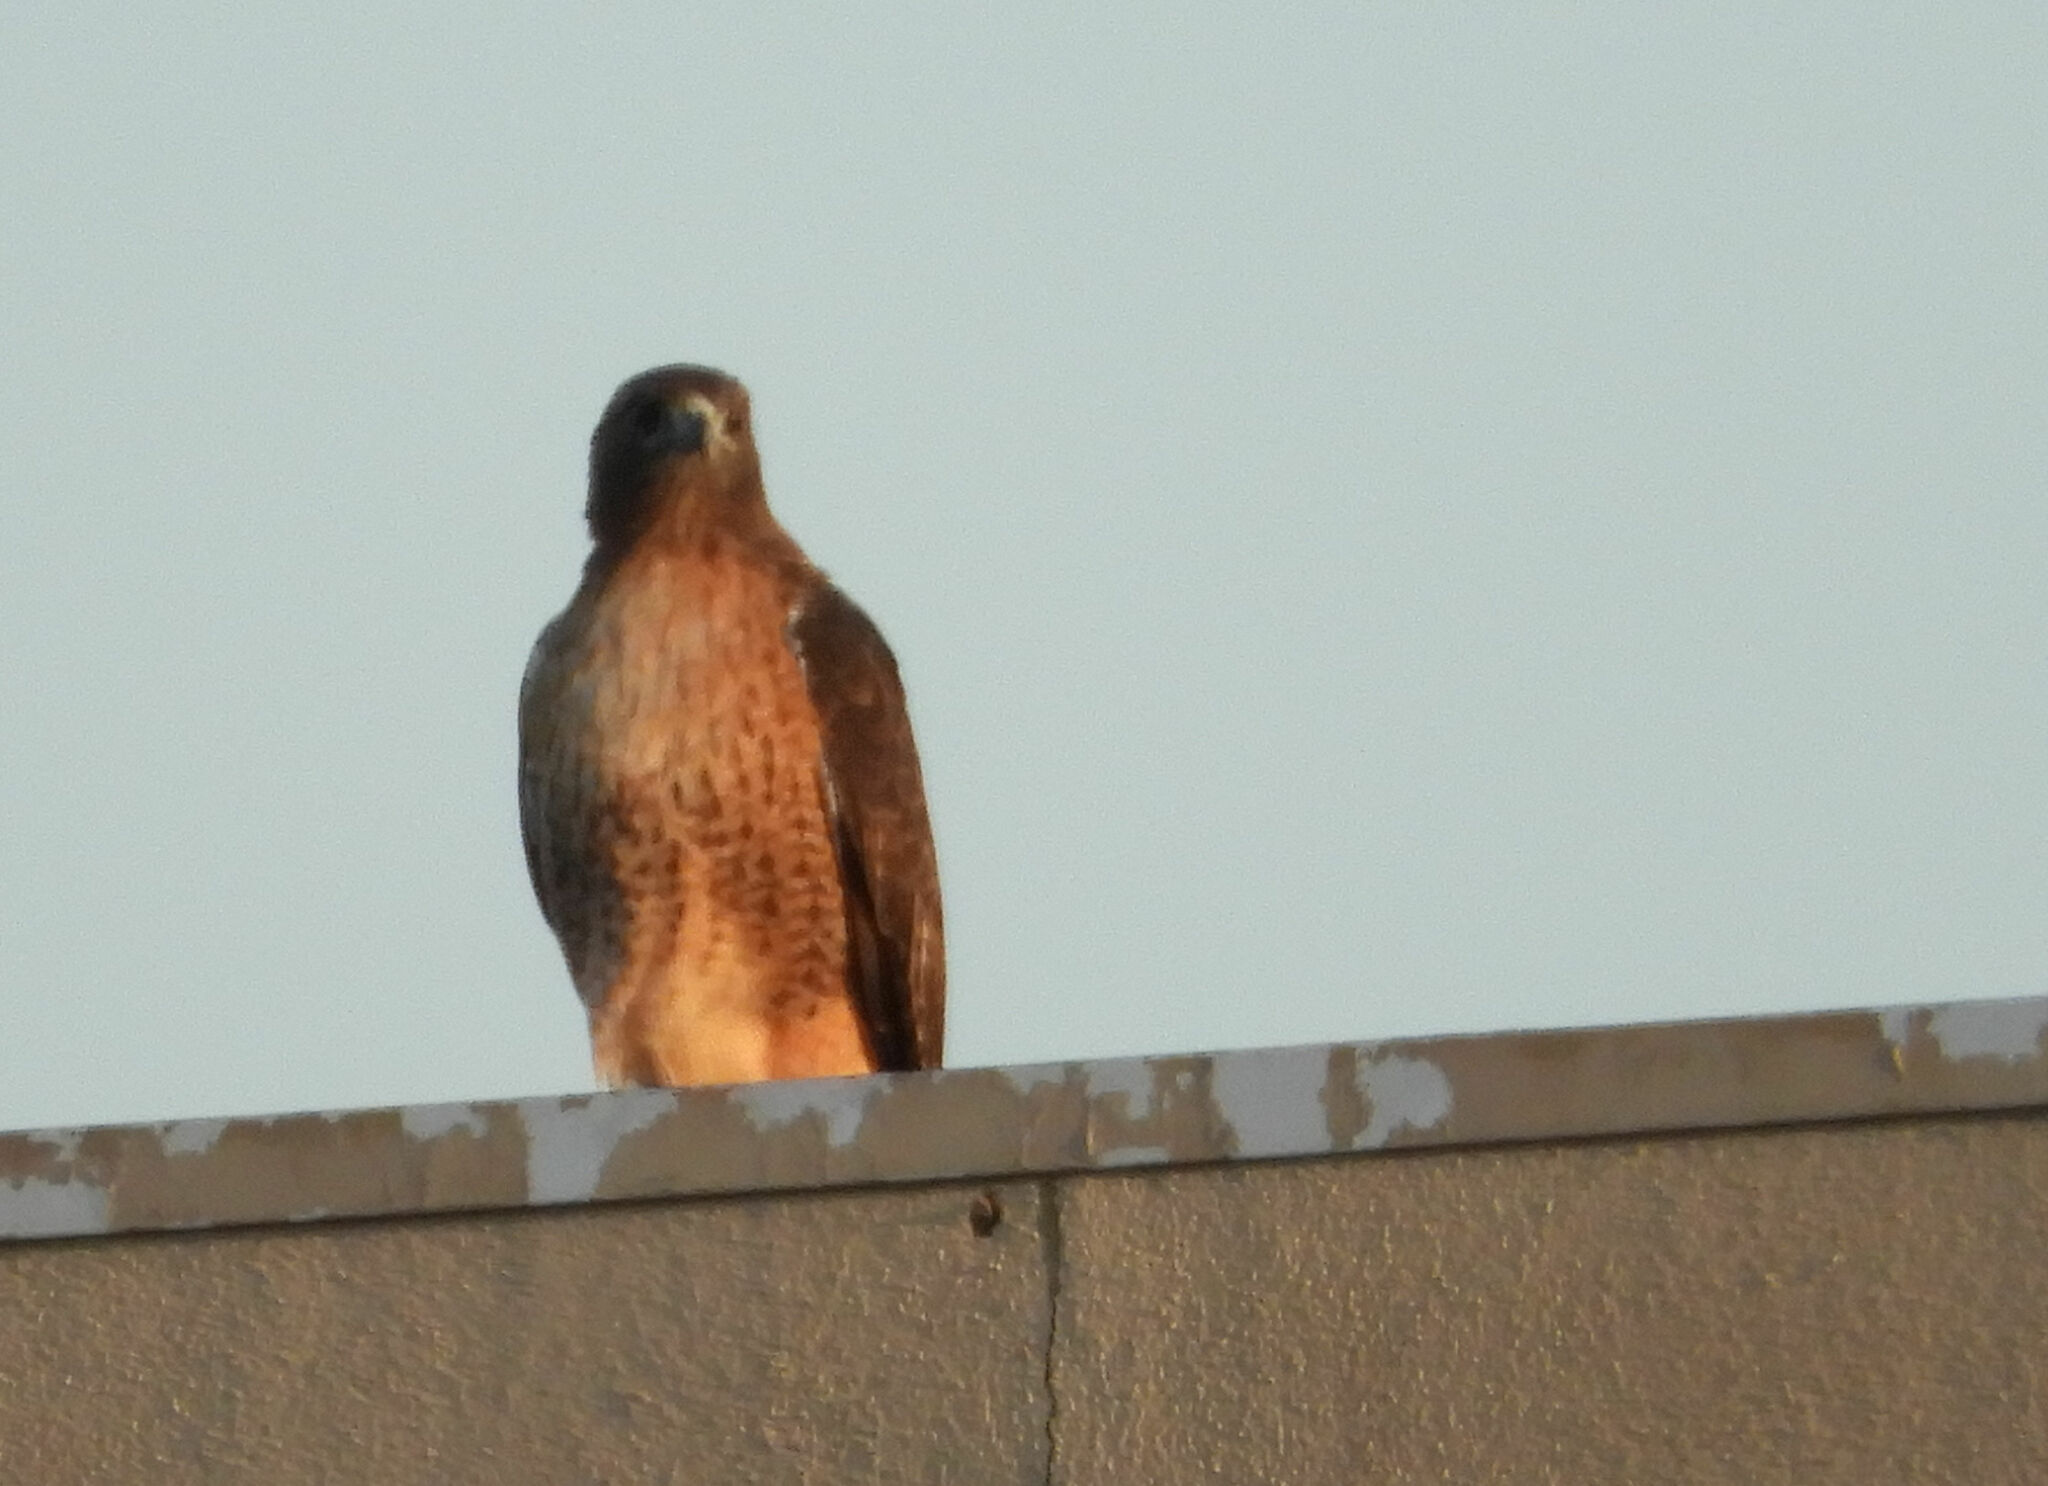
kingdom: Animalia
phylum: Chordata
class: Aves
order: Accipitriformes
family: Accipitridae
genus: Buteo
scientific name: Buteo jamaicensis
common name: Red-tailed hawk
